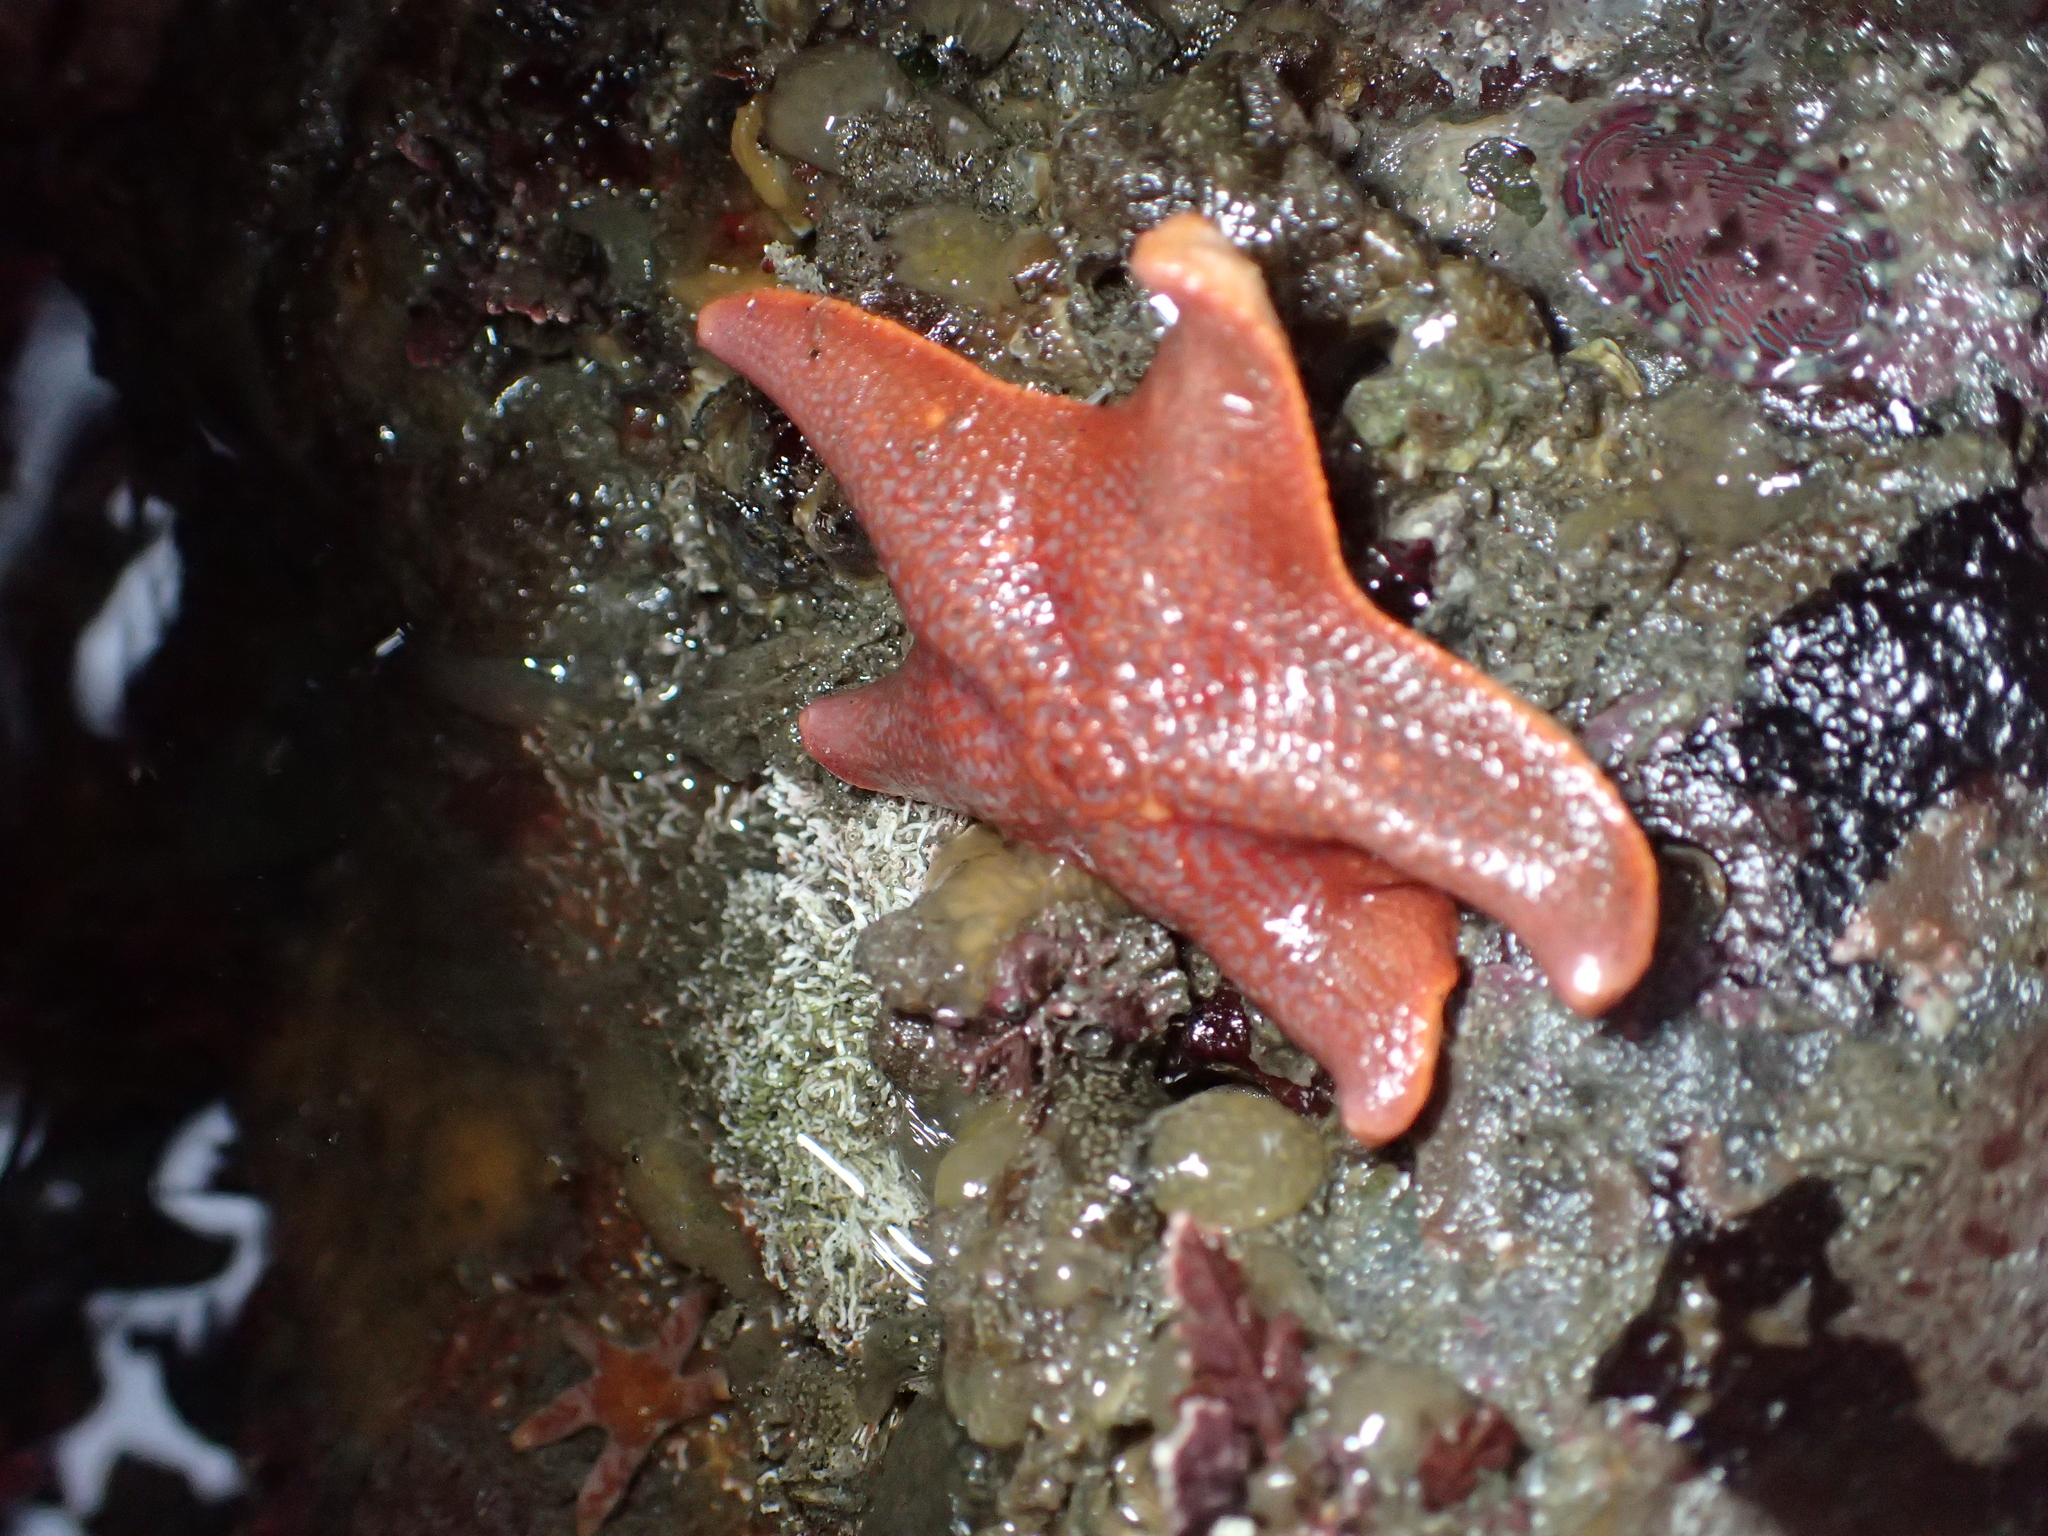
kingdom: Animalia
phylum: Echinodermata
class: Asteroidea
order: Valvatida
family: Asterinidae
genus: Patiria
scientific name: Patiria miniata
